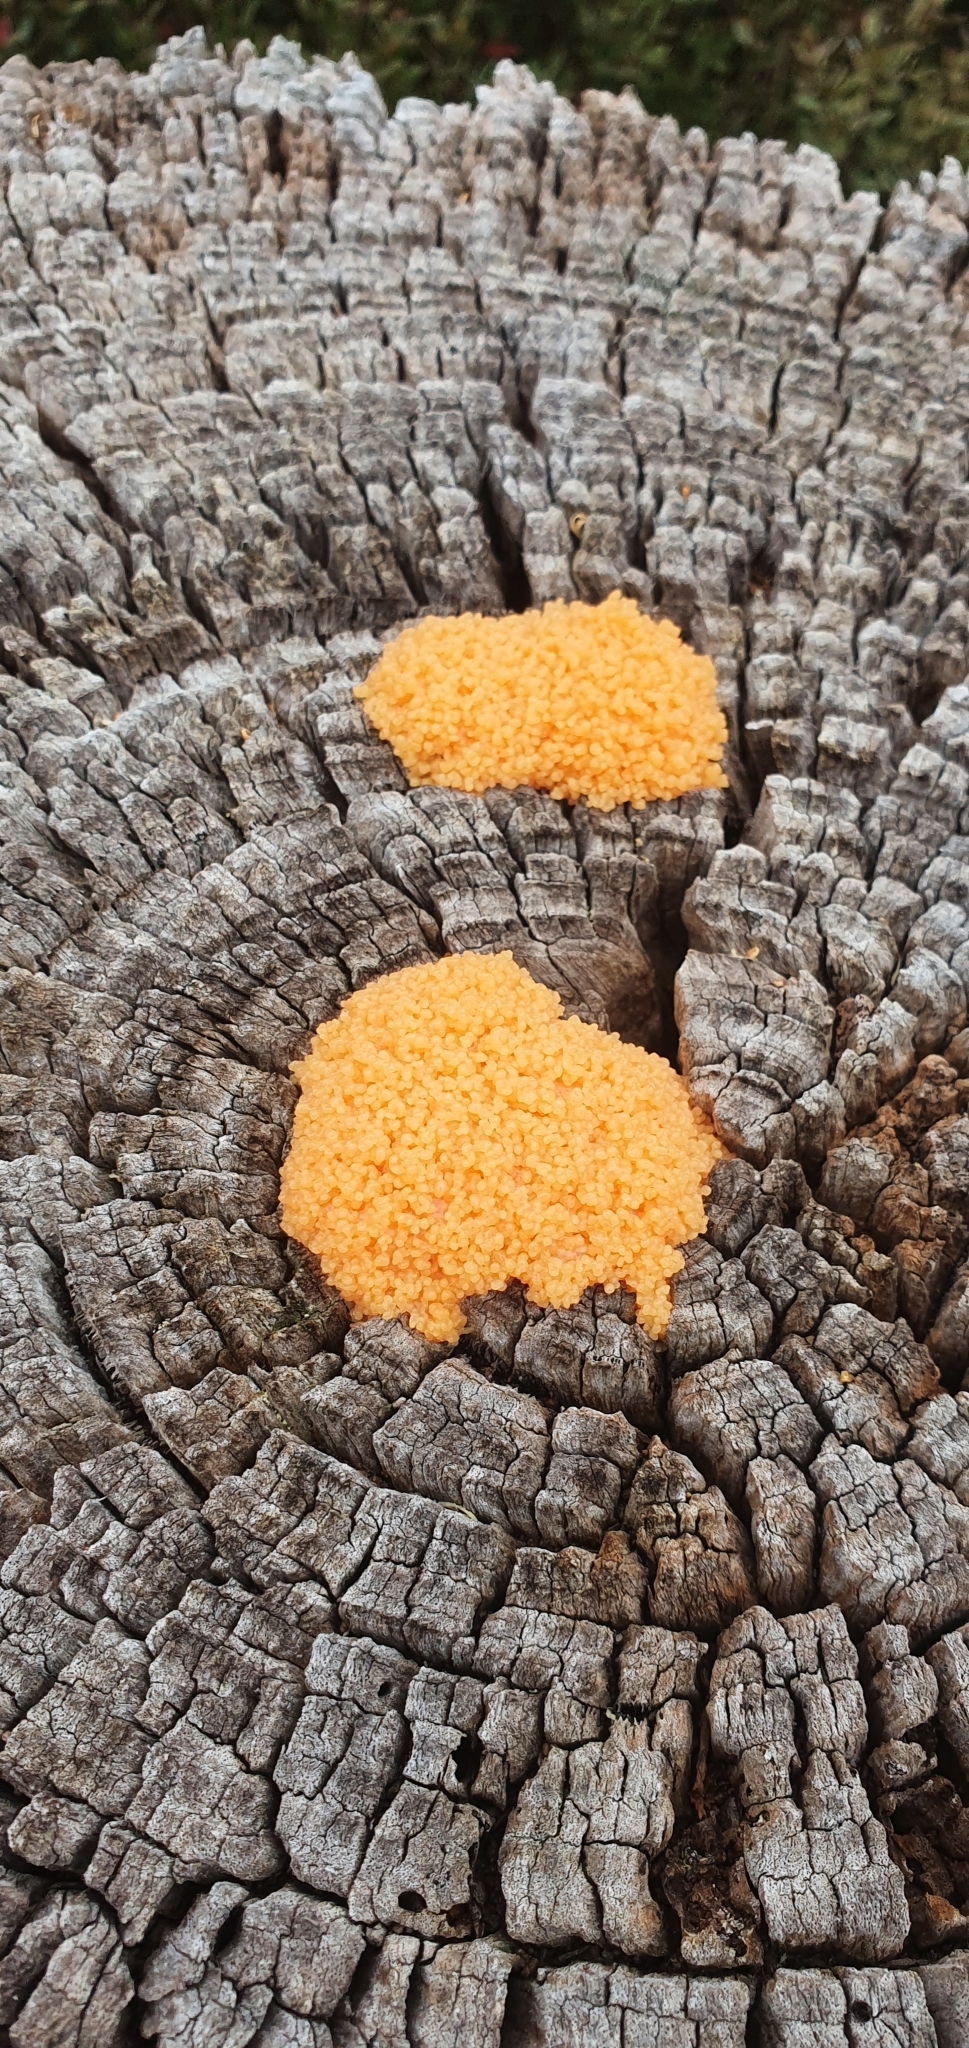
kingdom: Protozoa
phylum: Mycetozoa
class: Myxomycetes
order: Physarales
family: Physaraceae
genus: Fuligo
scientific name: Fuligo septica
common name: Dog vomit slime mold
